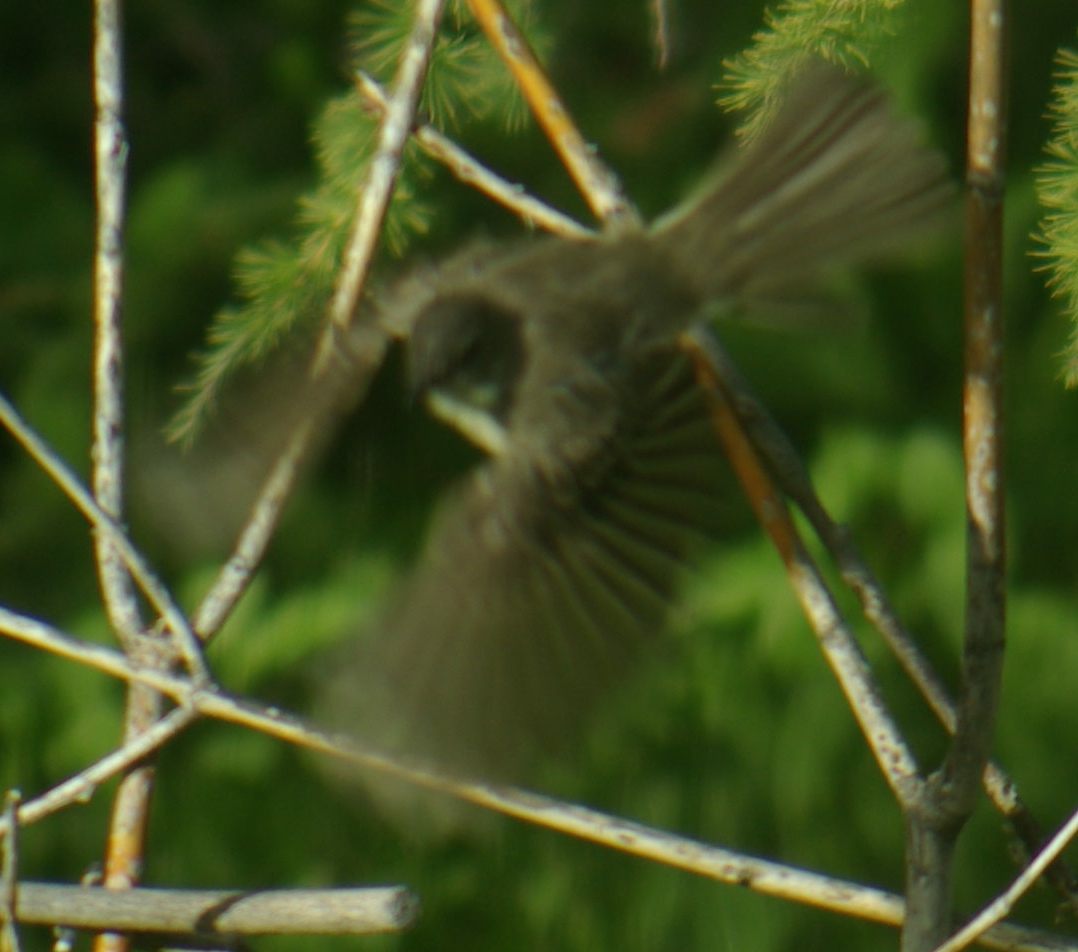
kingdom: Animalia
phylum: Chordata
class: Aves
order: Passeriformes
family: Tyrannidae
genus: Sayornis
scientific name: Sayornis phoebe
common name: Eastern phoebe
